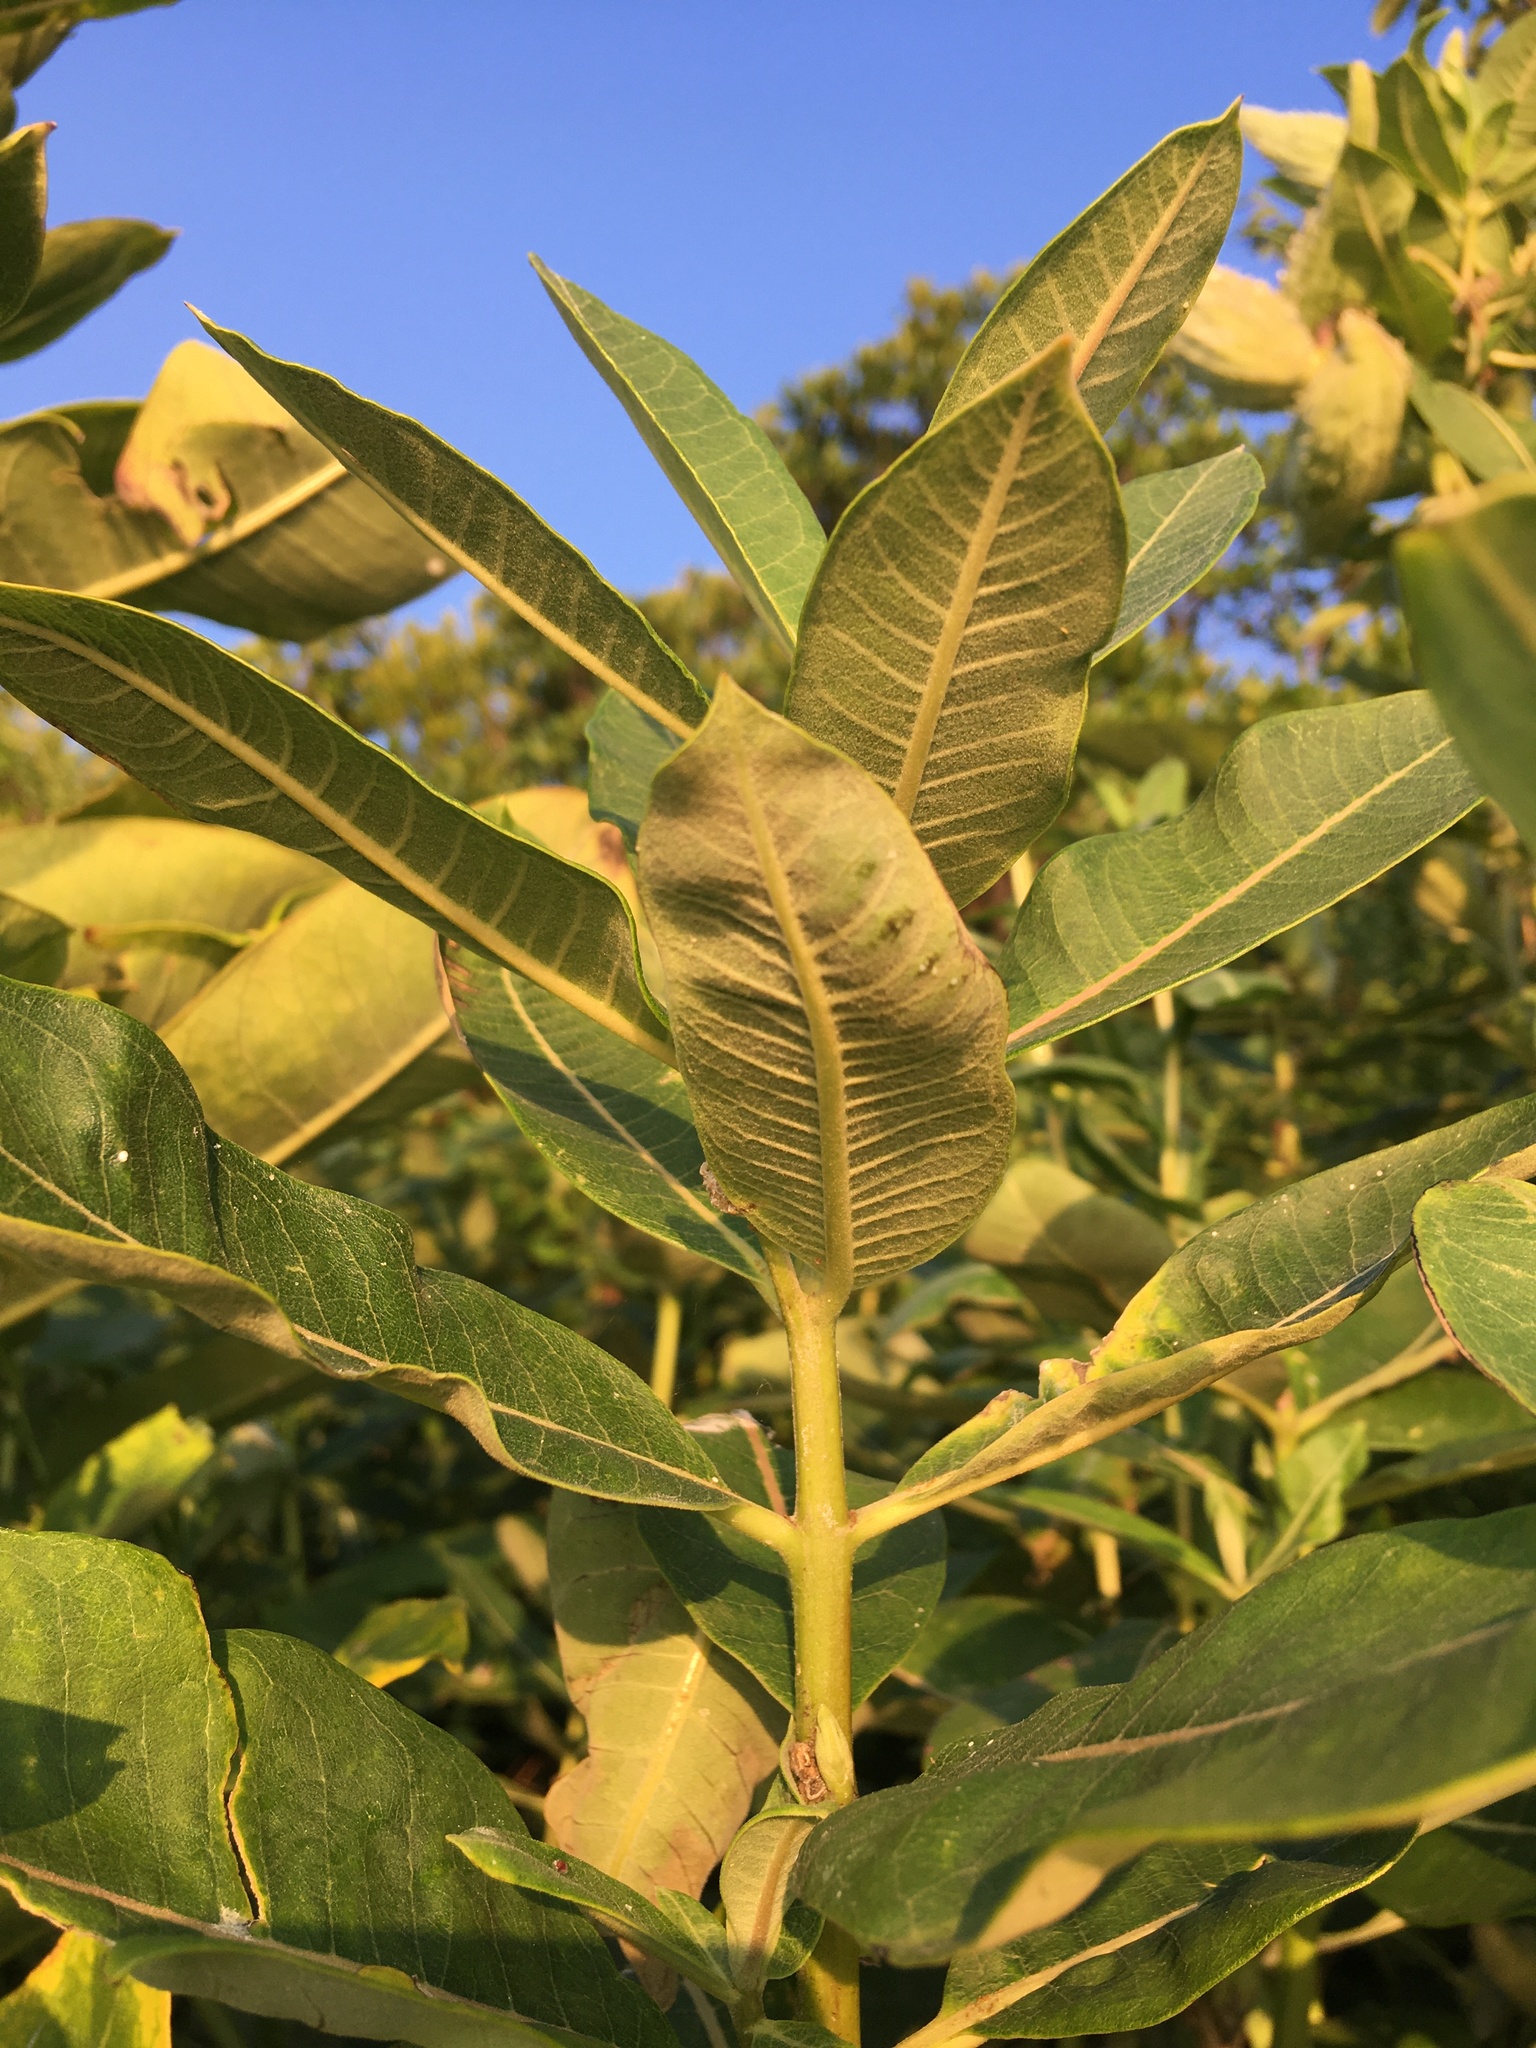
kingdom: Plantae
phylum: Tracheophyta
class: Magnoliopsida
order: Gentianales
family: Apocynaceae
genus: Asclepias
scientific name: Asclepias syriaca
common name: Common milkweed
